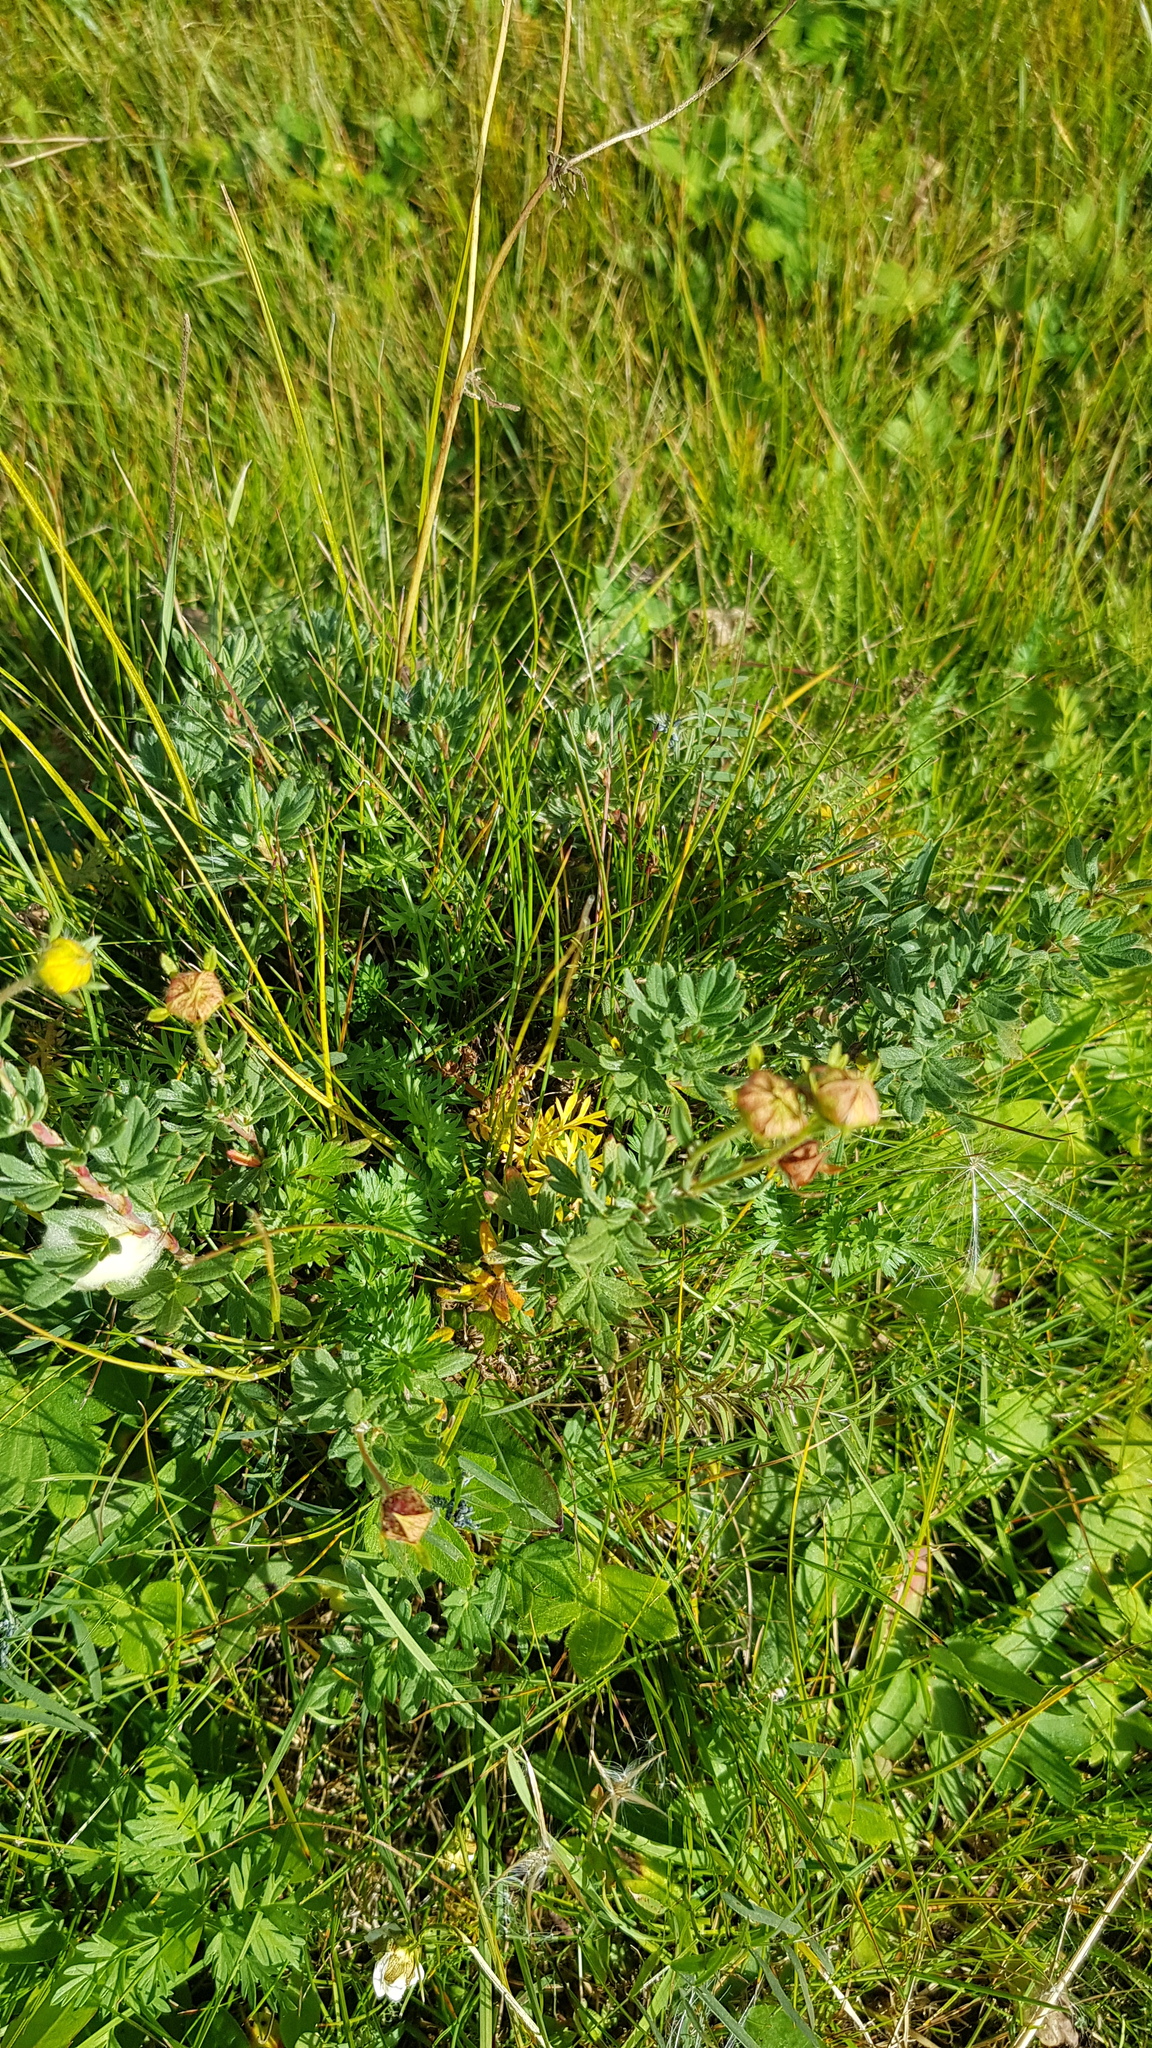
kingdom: Plantae
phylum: Tracheophyta
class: Magnoliopsida
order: Rosales
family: Rosaceae
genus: Dasiphora
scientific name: Dasiphora fruticosa
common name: Shrubby cinquefoil
